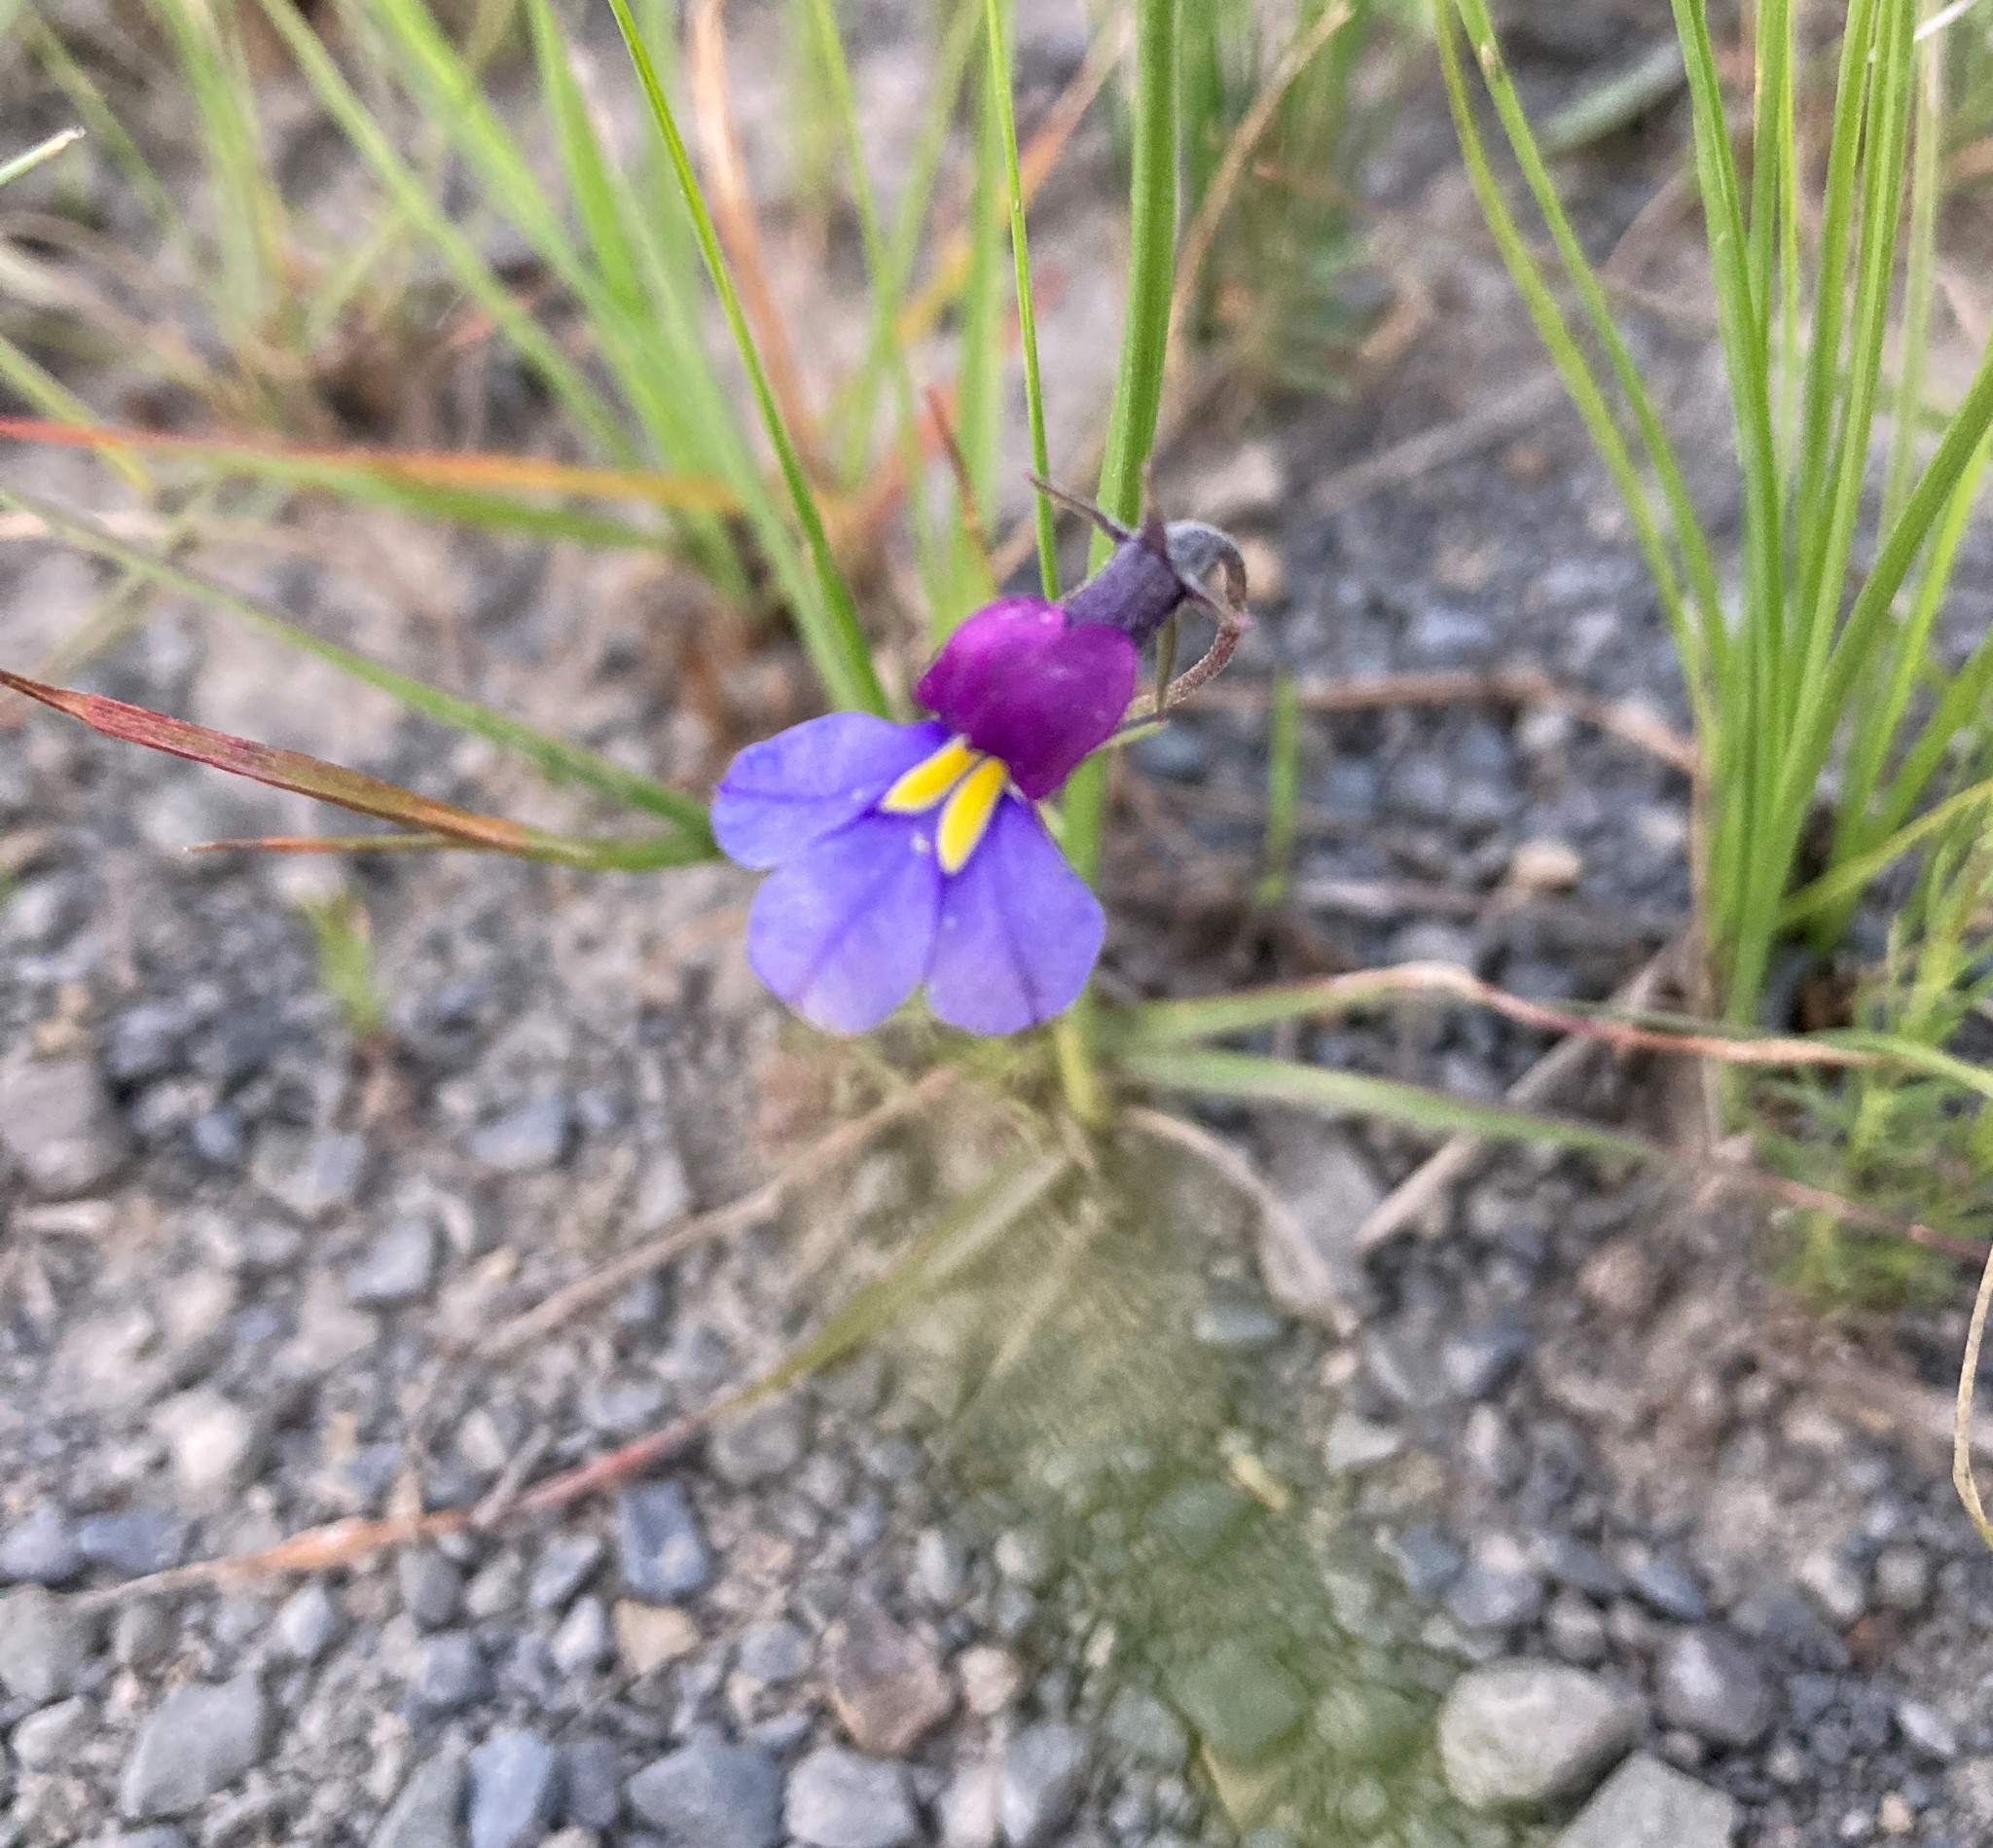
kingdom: Plantae
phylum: Tracheophyta
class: Magnoliopsida
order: Asterales
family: Campanulaceae
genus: Monopsis
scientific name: Monopsis decipiens
